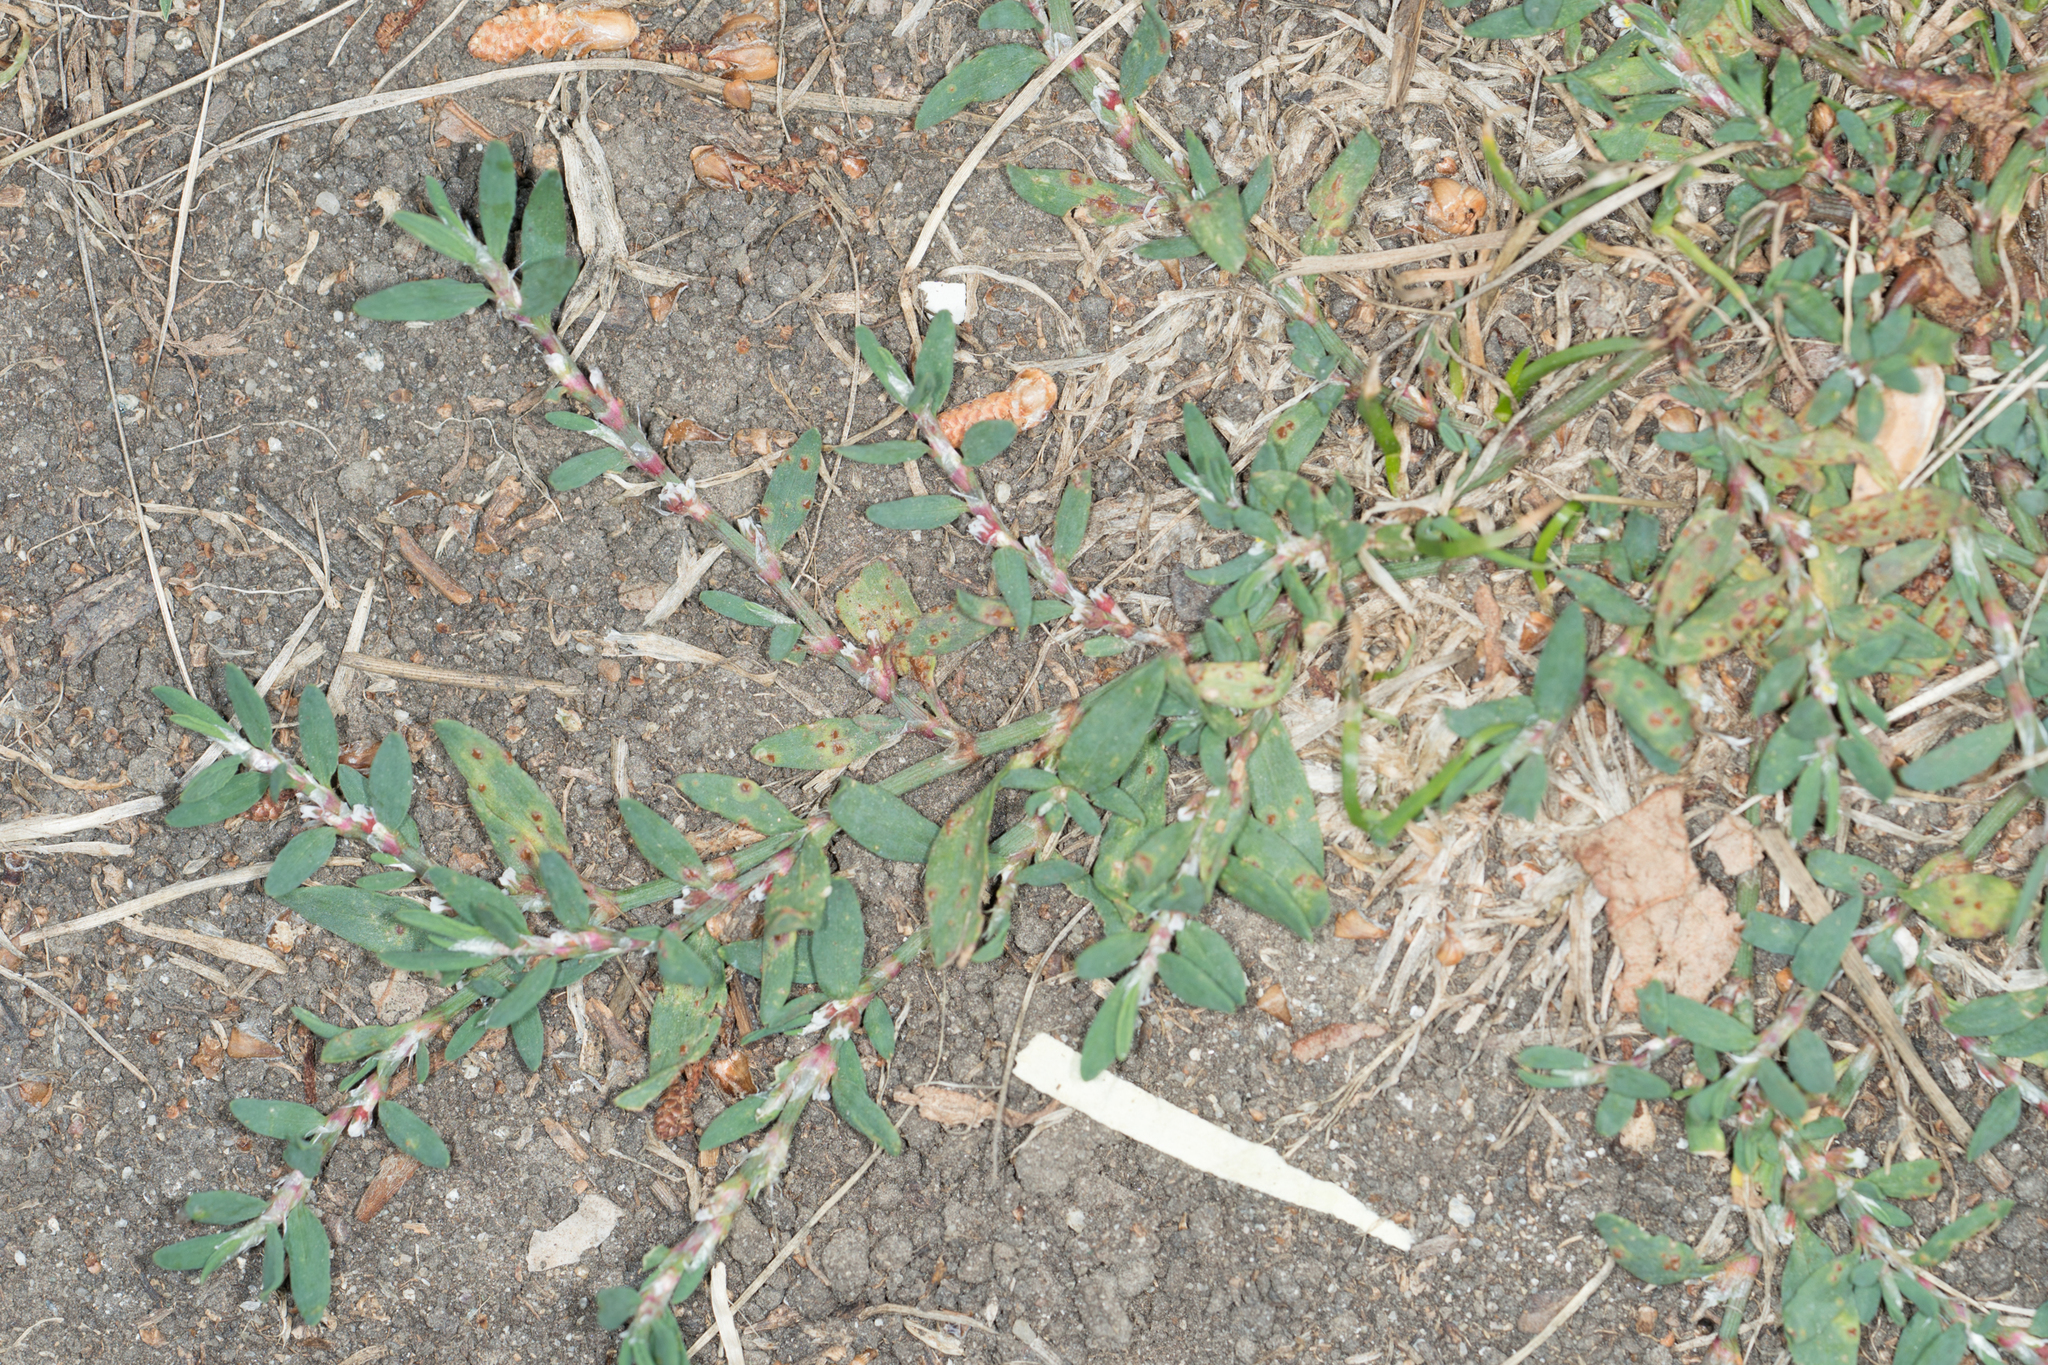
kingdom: Plantae
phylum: Tracheophyta
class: Magnoliopsida
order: Caryophyllales
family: Polygonaceae
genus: Polygonum
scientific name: Polygonum aviculare
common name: Prostrate knotweed
